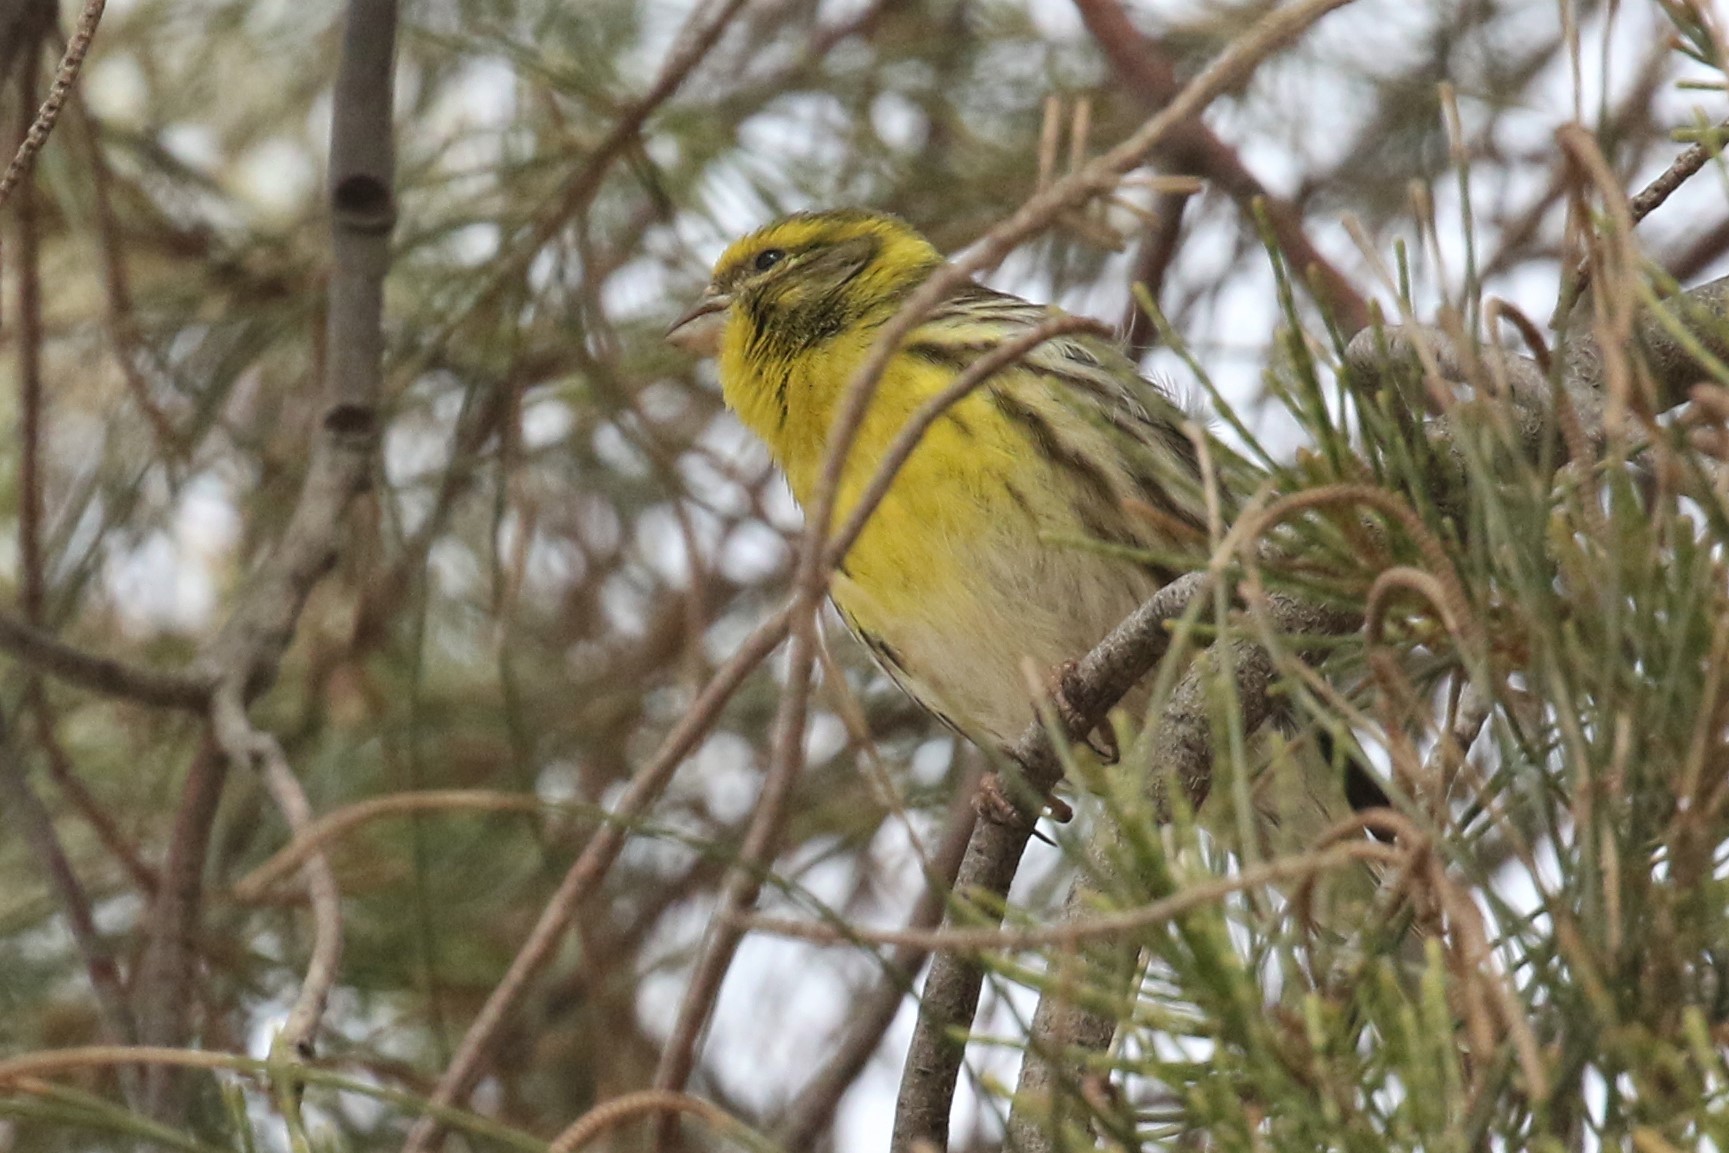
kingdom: Animalia
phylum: Chordata
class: Aves
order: Passeriformes
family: Fringillidae
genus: Serinus
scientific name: Serinus serinus
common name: European serin
